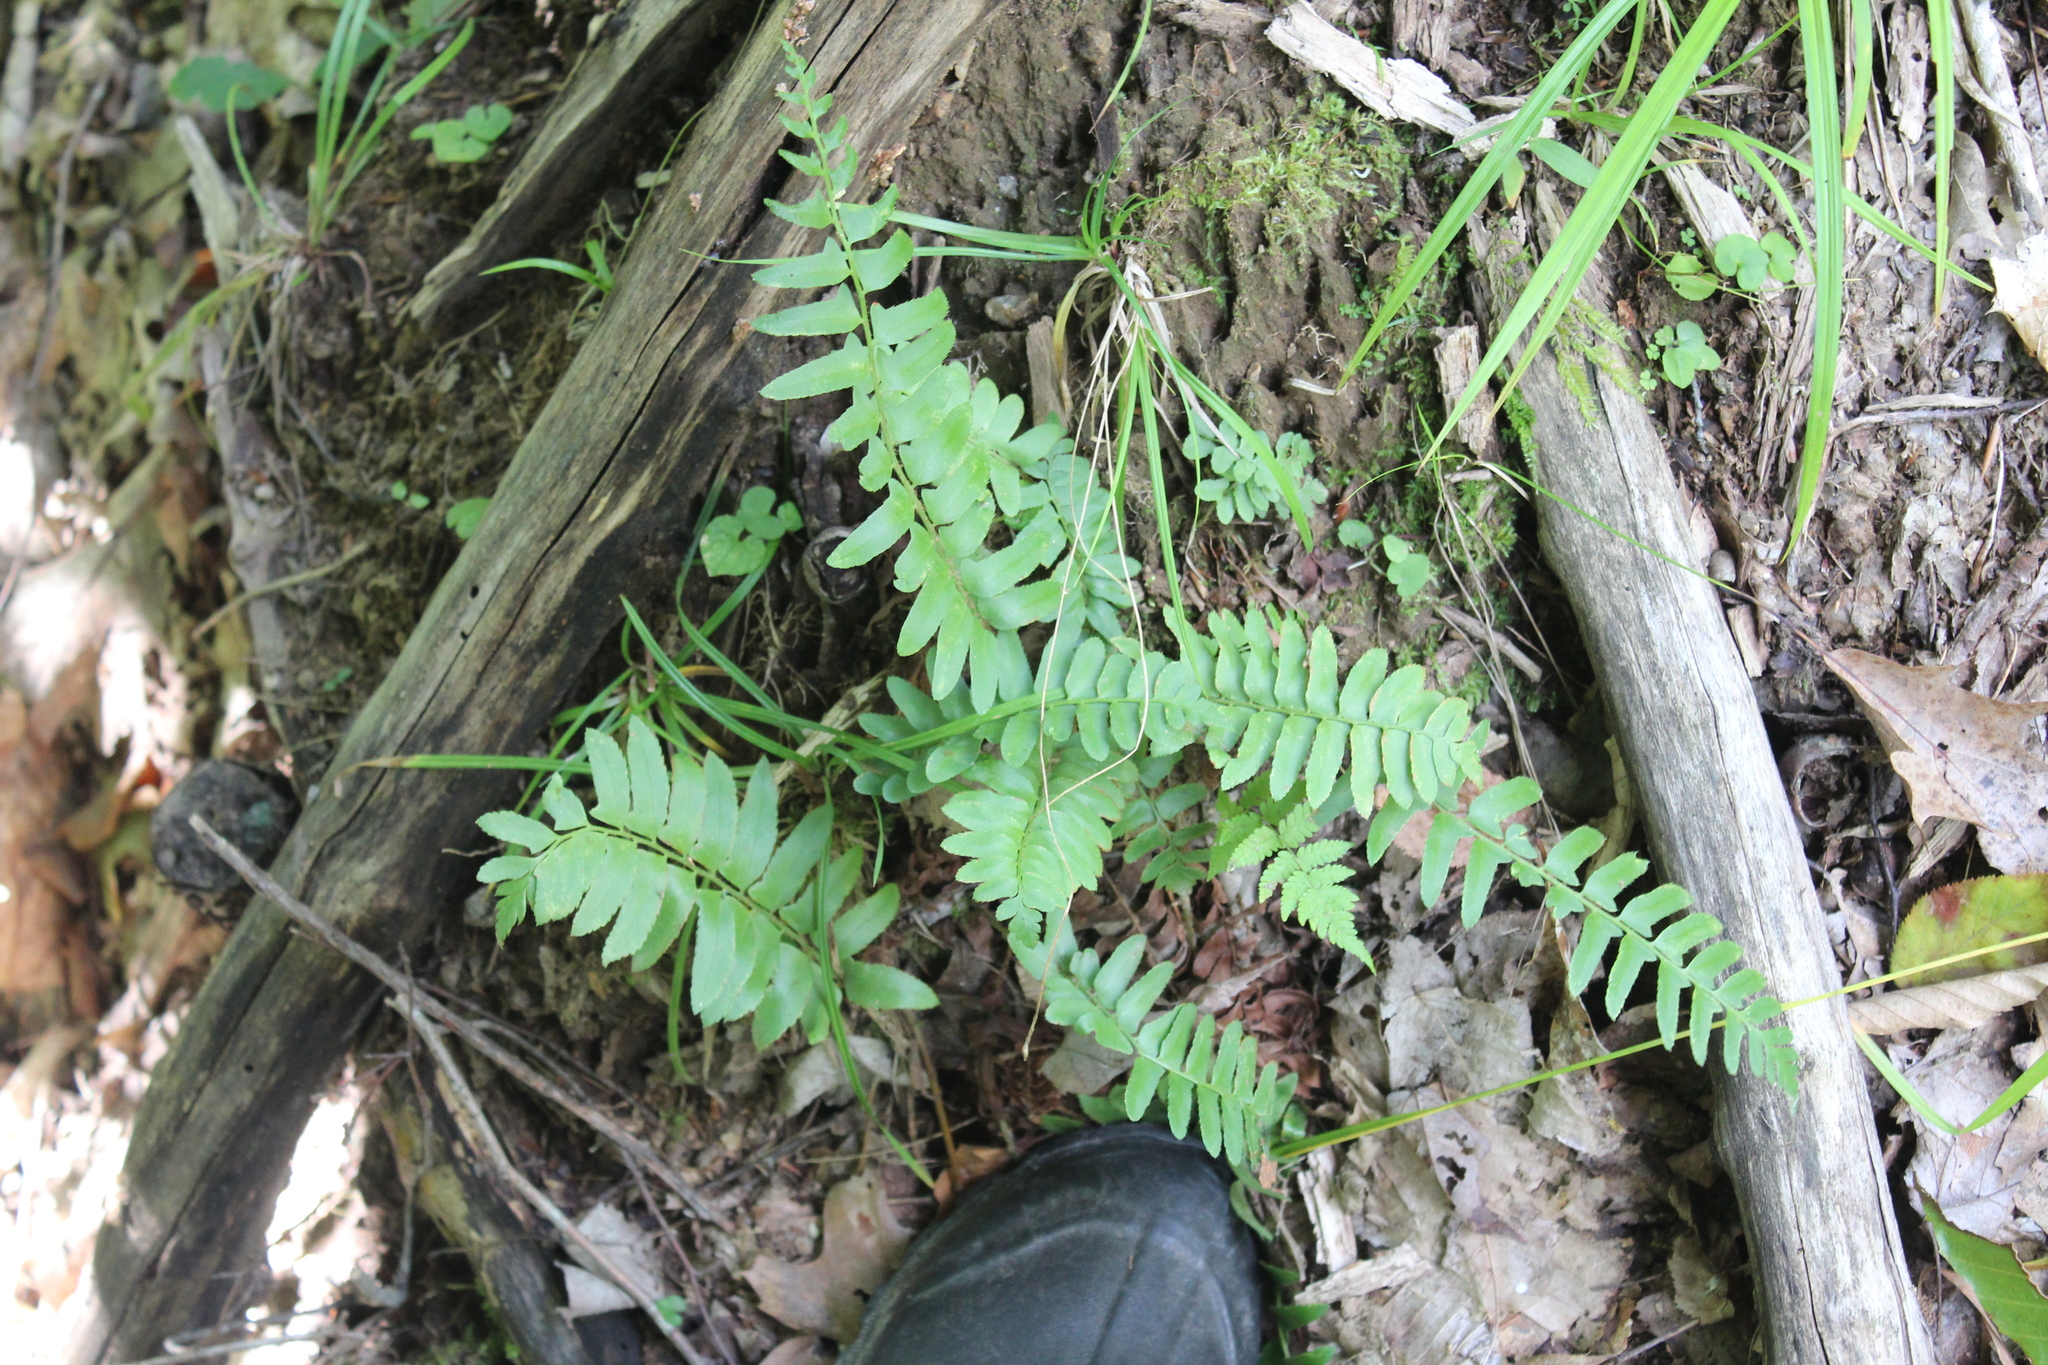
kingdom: Plantae
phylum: Tracheophyta
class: Polypodiopsida
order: Polypodiales
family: Dryopteridaceae
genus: Polystichum
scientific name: Polystichum acrostichoides
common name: Christmas fern
